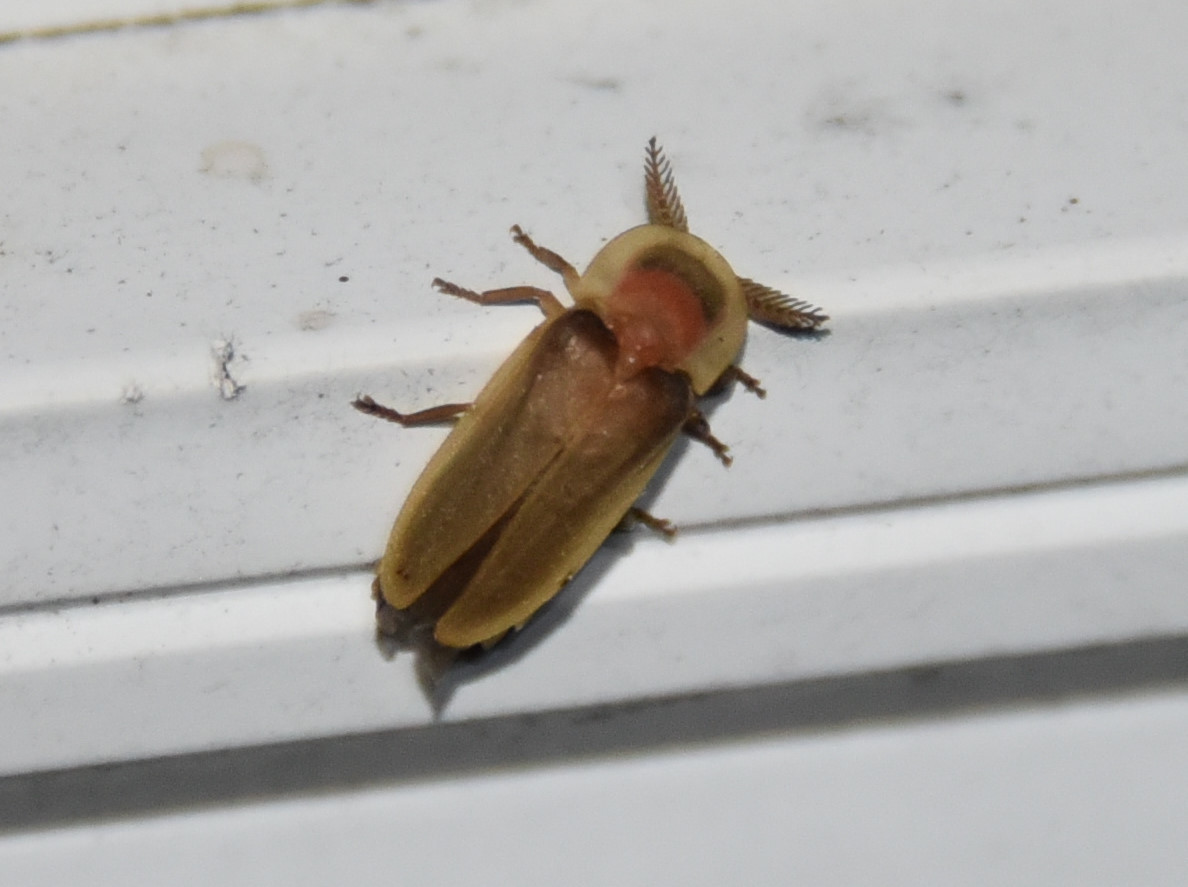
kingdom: Animalia
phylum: Arthropoda
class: Insecta
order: Coleoptera
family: Lampyridae
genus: Pleotomus
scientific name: Pleotomus pallens
